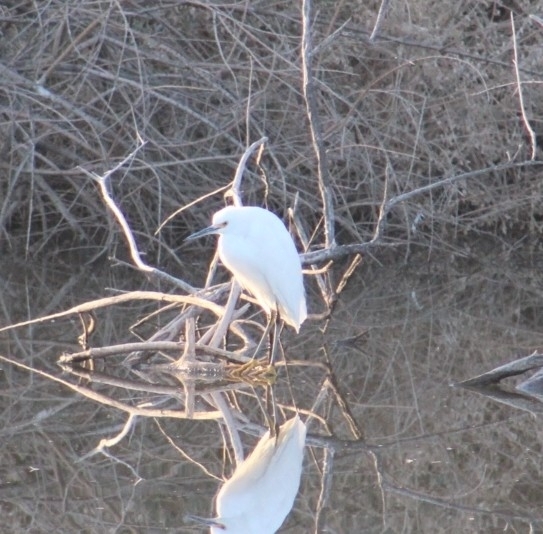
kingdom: Animalia
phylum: Chordata
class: Aves
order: Pelecaniformes
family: Ardeidae
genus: Egretta
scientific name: Egretta thula
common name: Snowy egret
